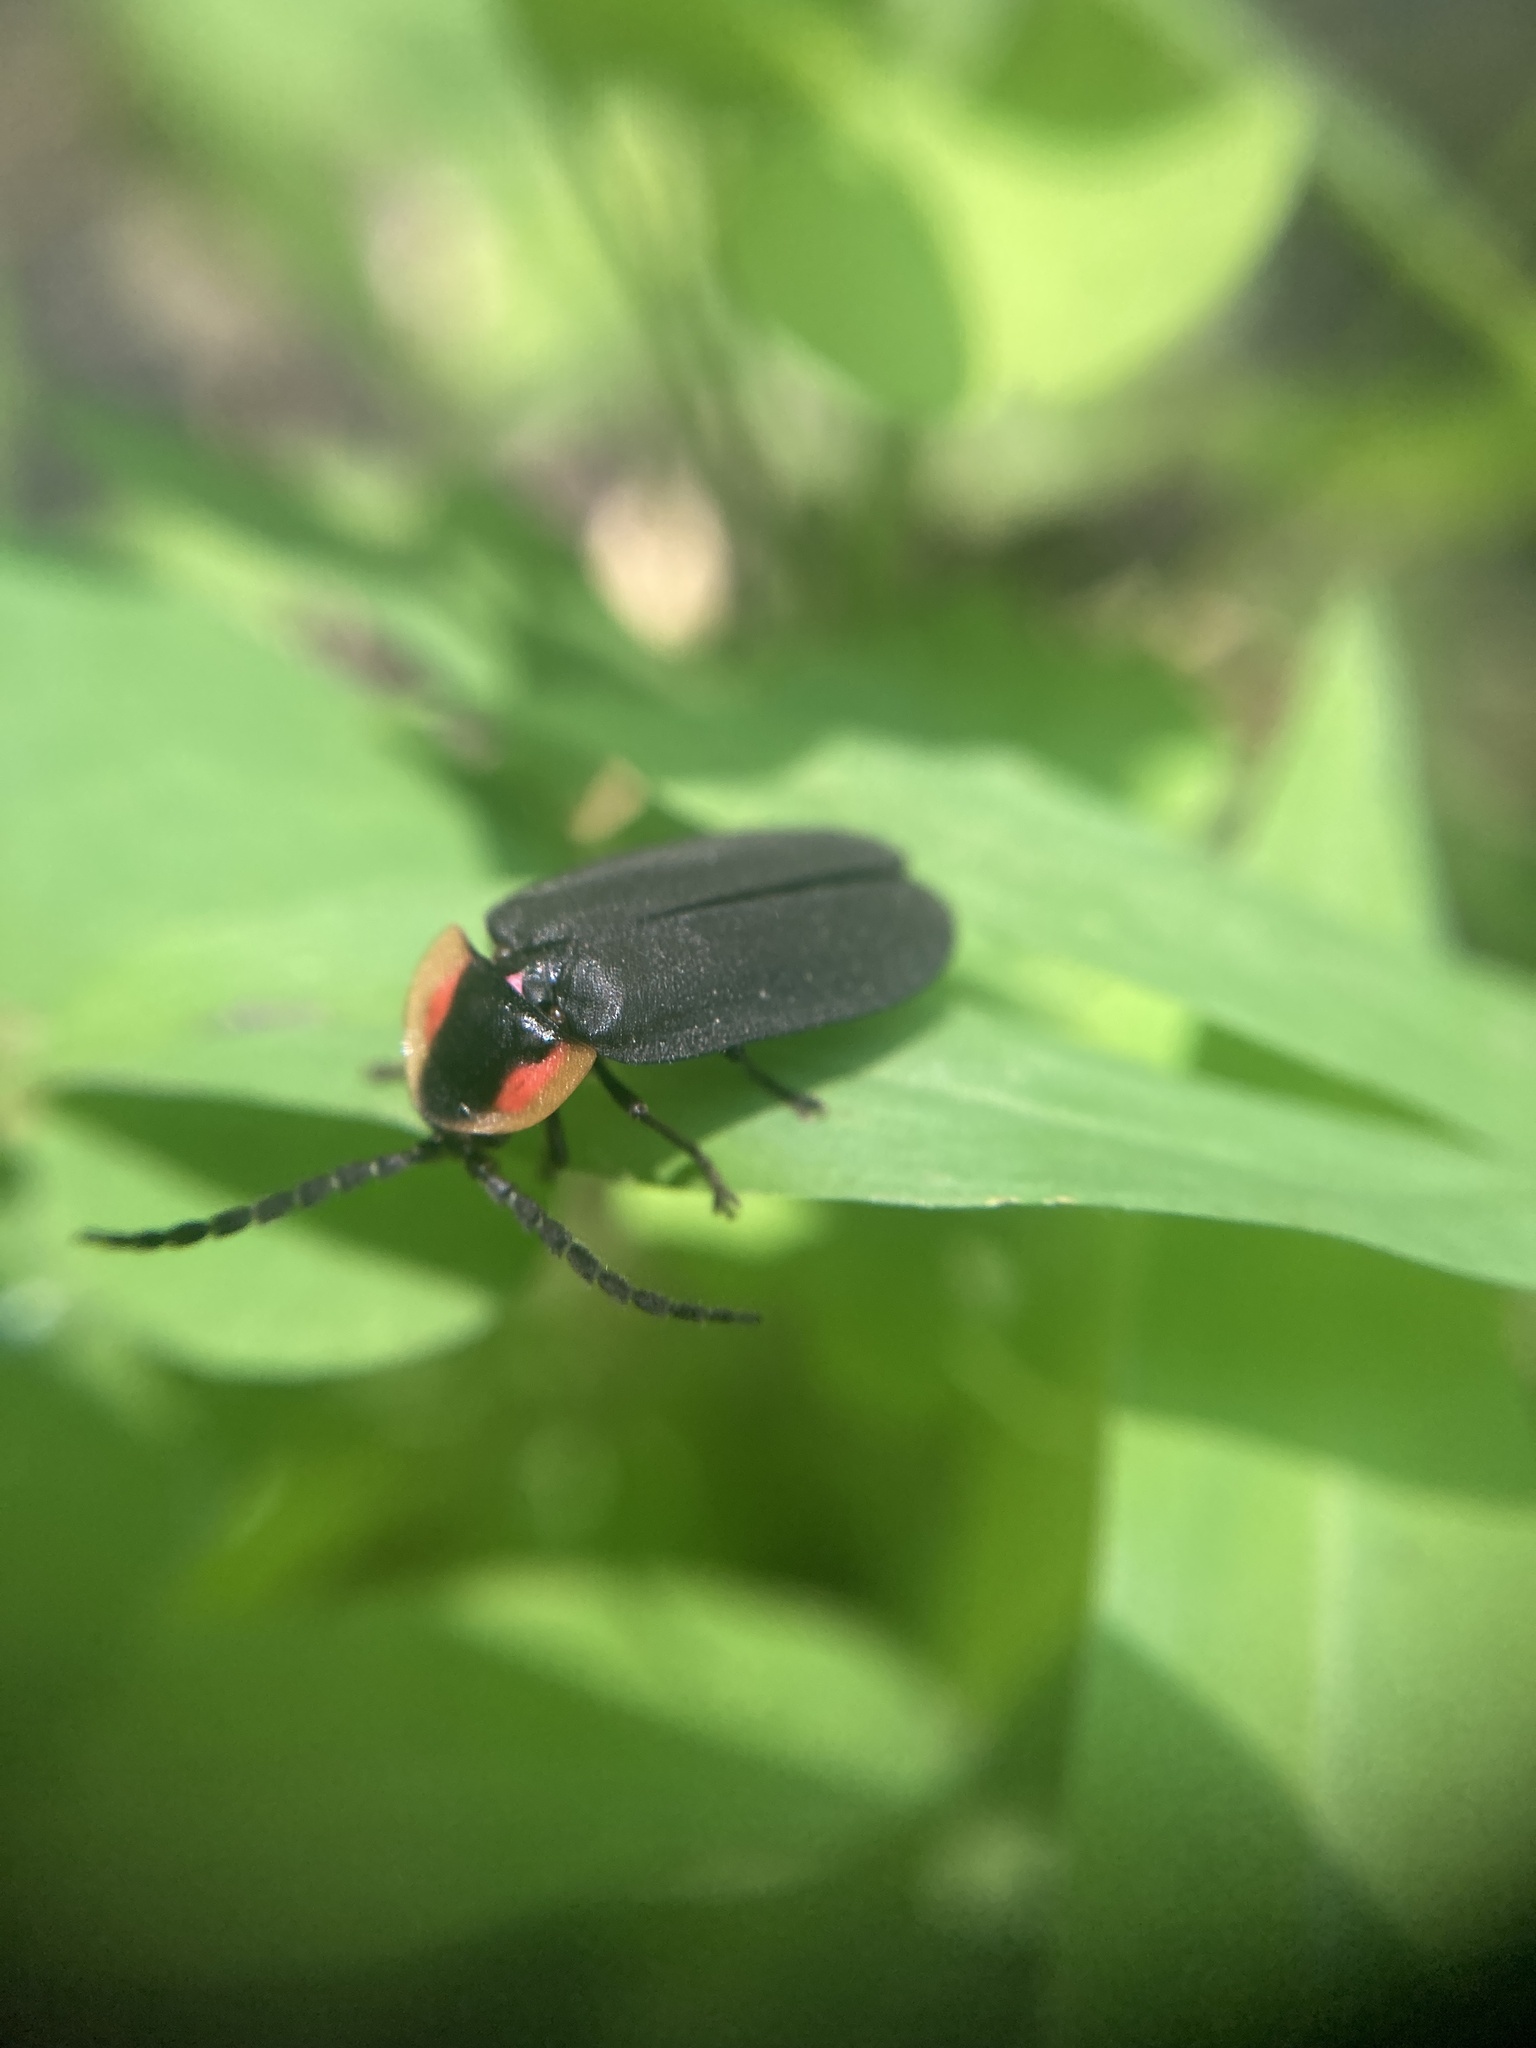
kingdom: Animalia
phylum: Arthropoda
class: Insecta
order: Coleoptera
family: Lampyridae
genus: Lucidota
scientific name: Lucidota atra
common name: Black firefly
